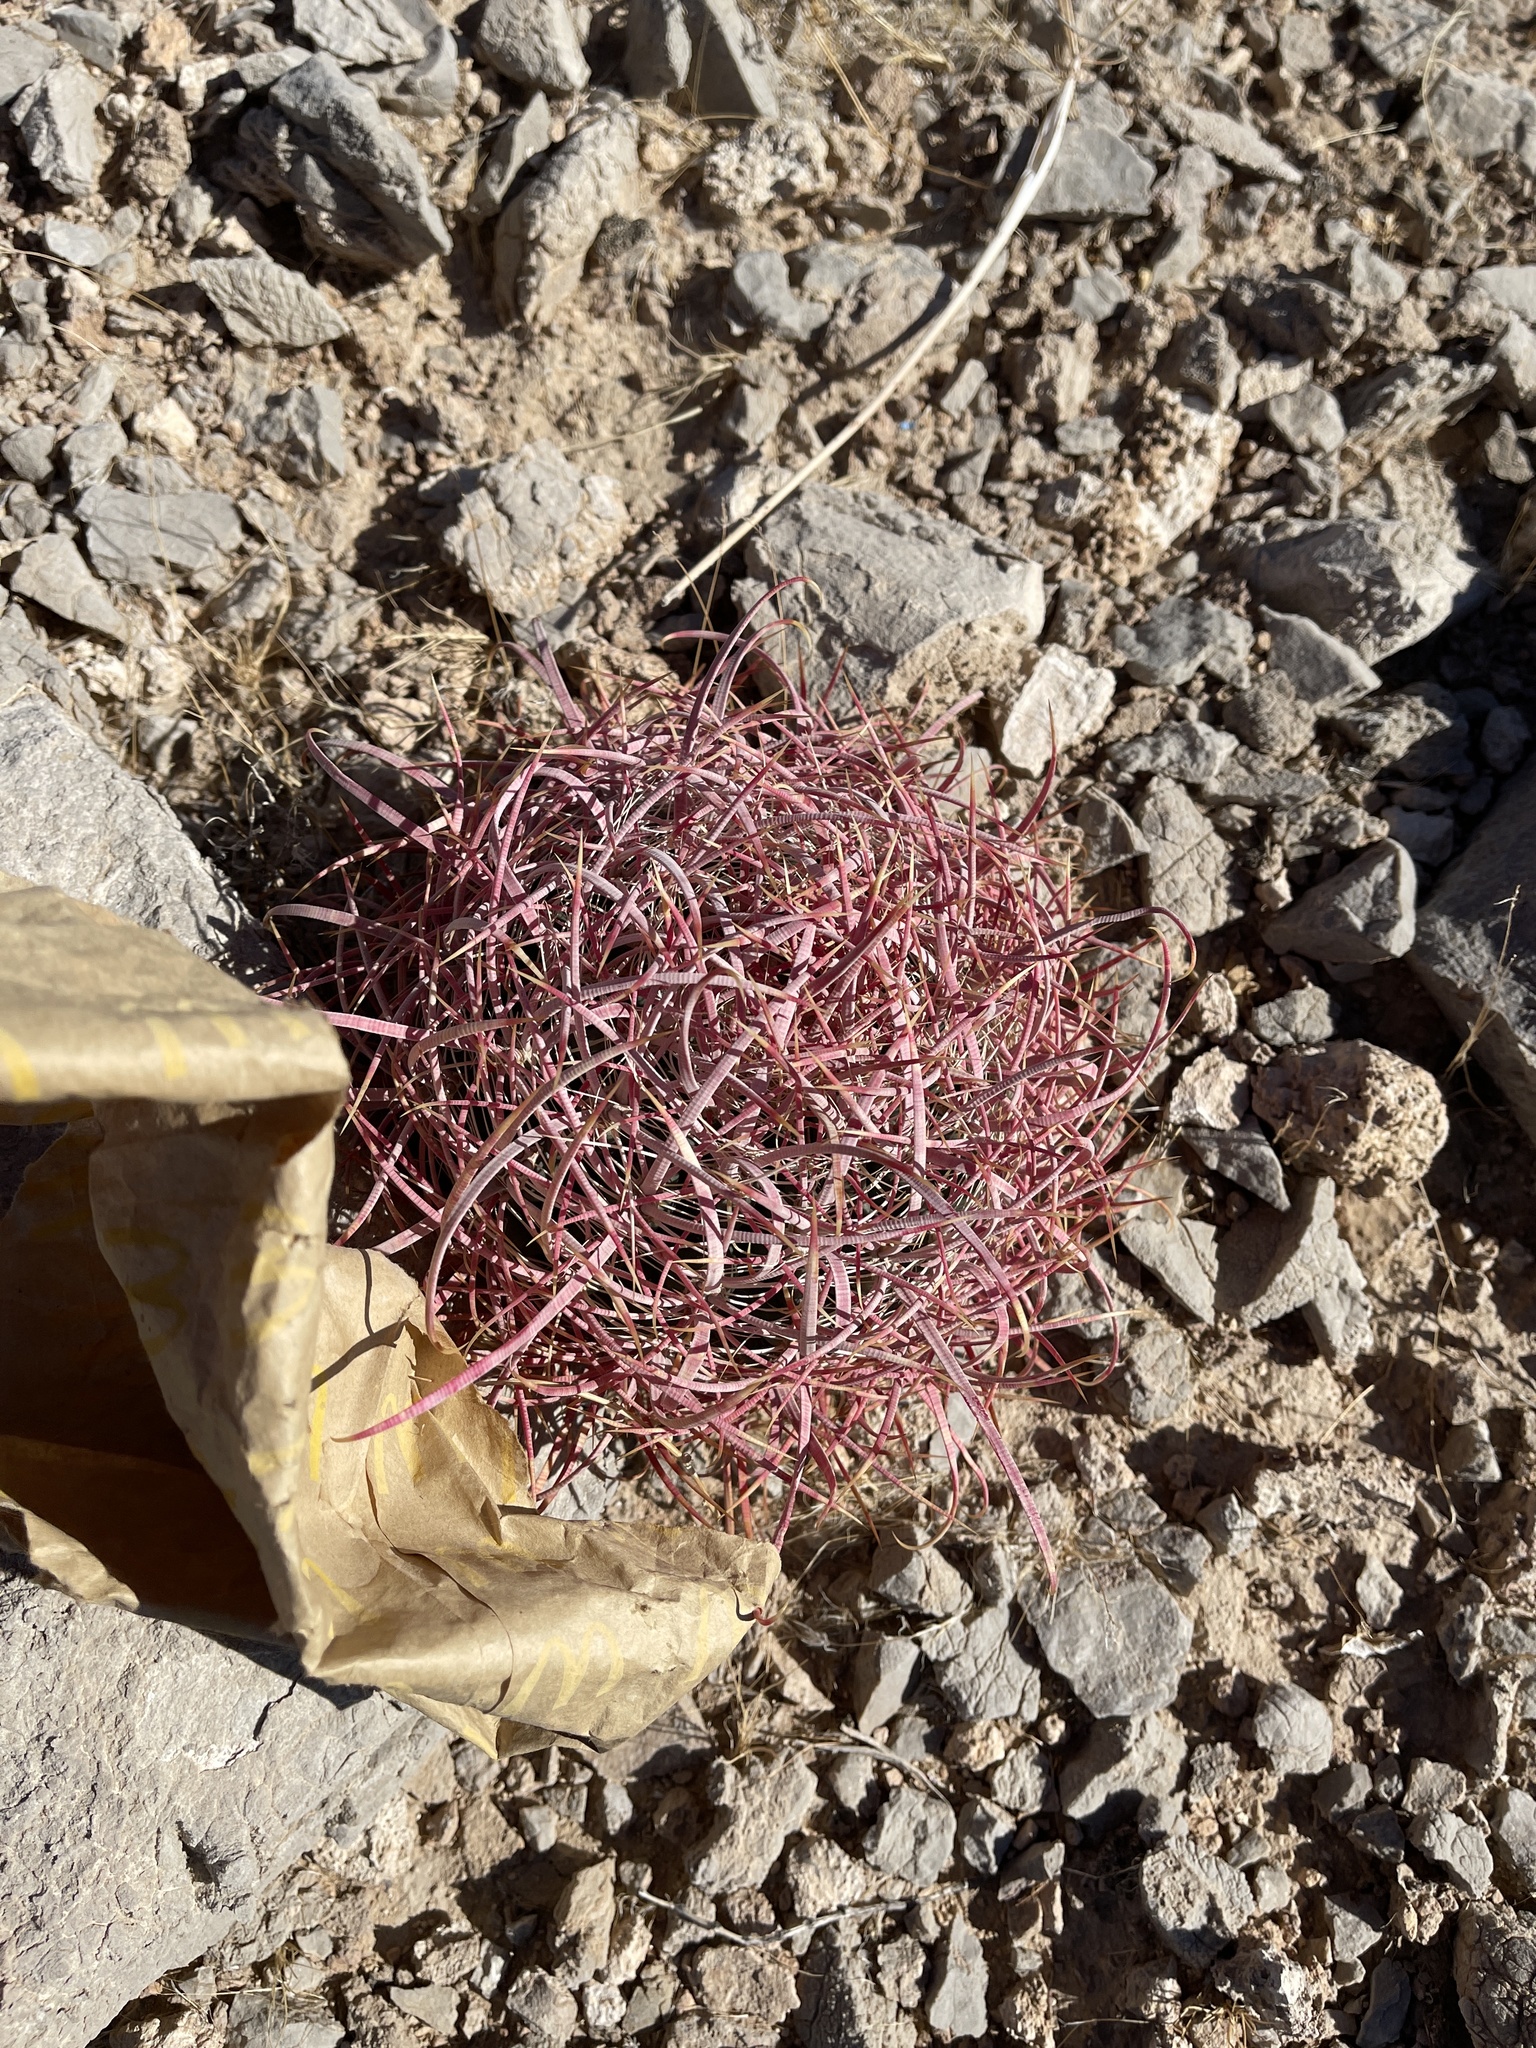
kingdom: Plantae
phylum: Tracheophyta
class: Magnoliopsida
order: Caryophyllales
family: Cactaceae
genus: Ferocactus
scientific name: Ferocactus cylindraceus
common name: California barrel cactus
